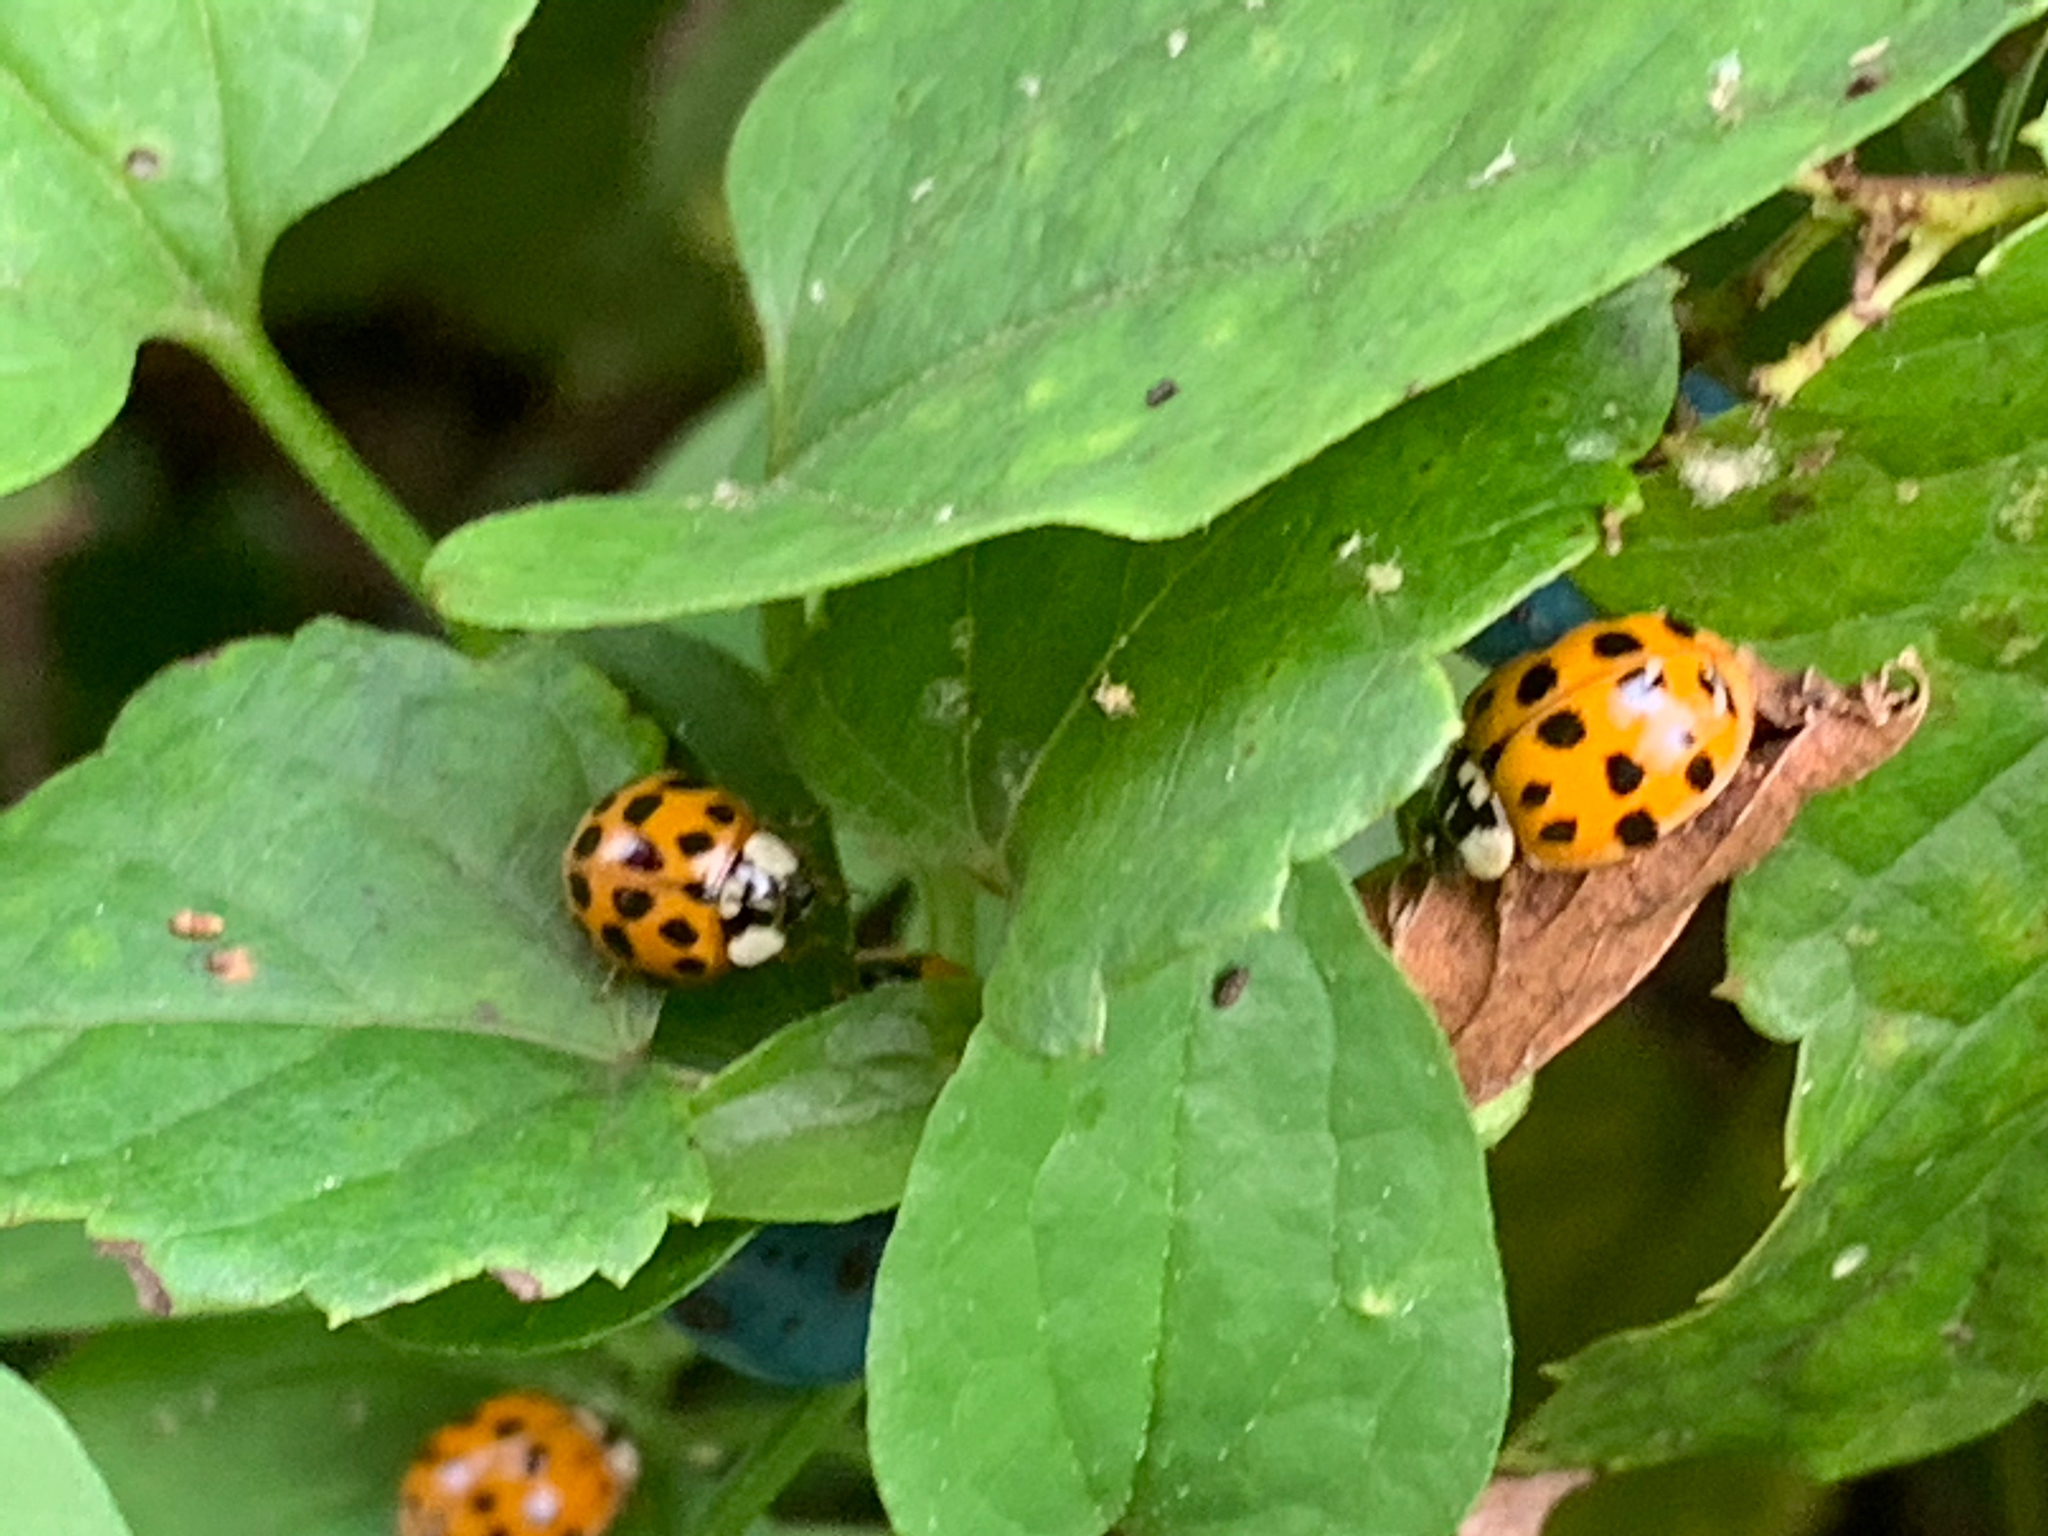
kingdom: Animalia
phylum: Arthropoda
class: Insecta
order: Coleoptera
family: Coccinellidae
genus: Harmonia
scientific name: Harmonia axyridis
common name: Harlequin ladybird
